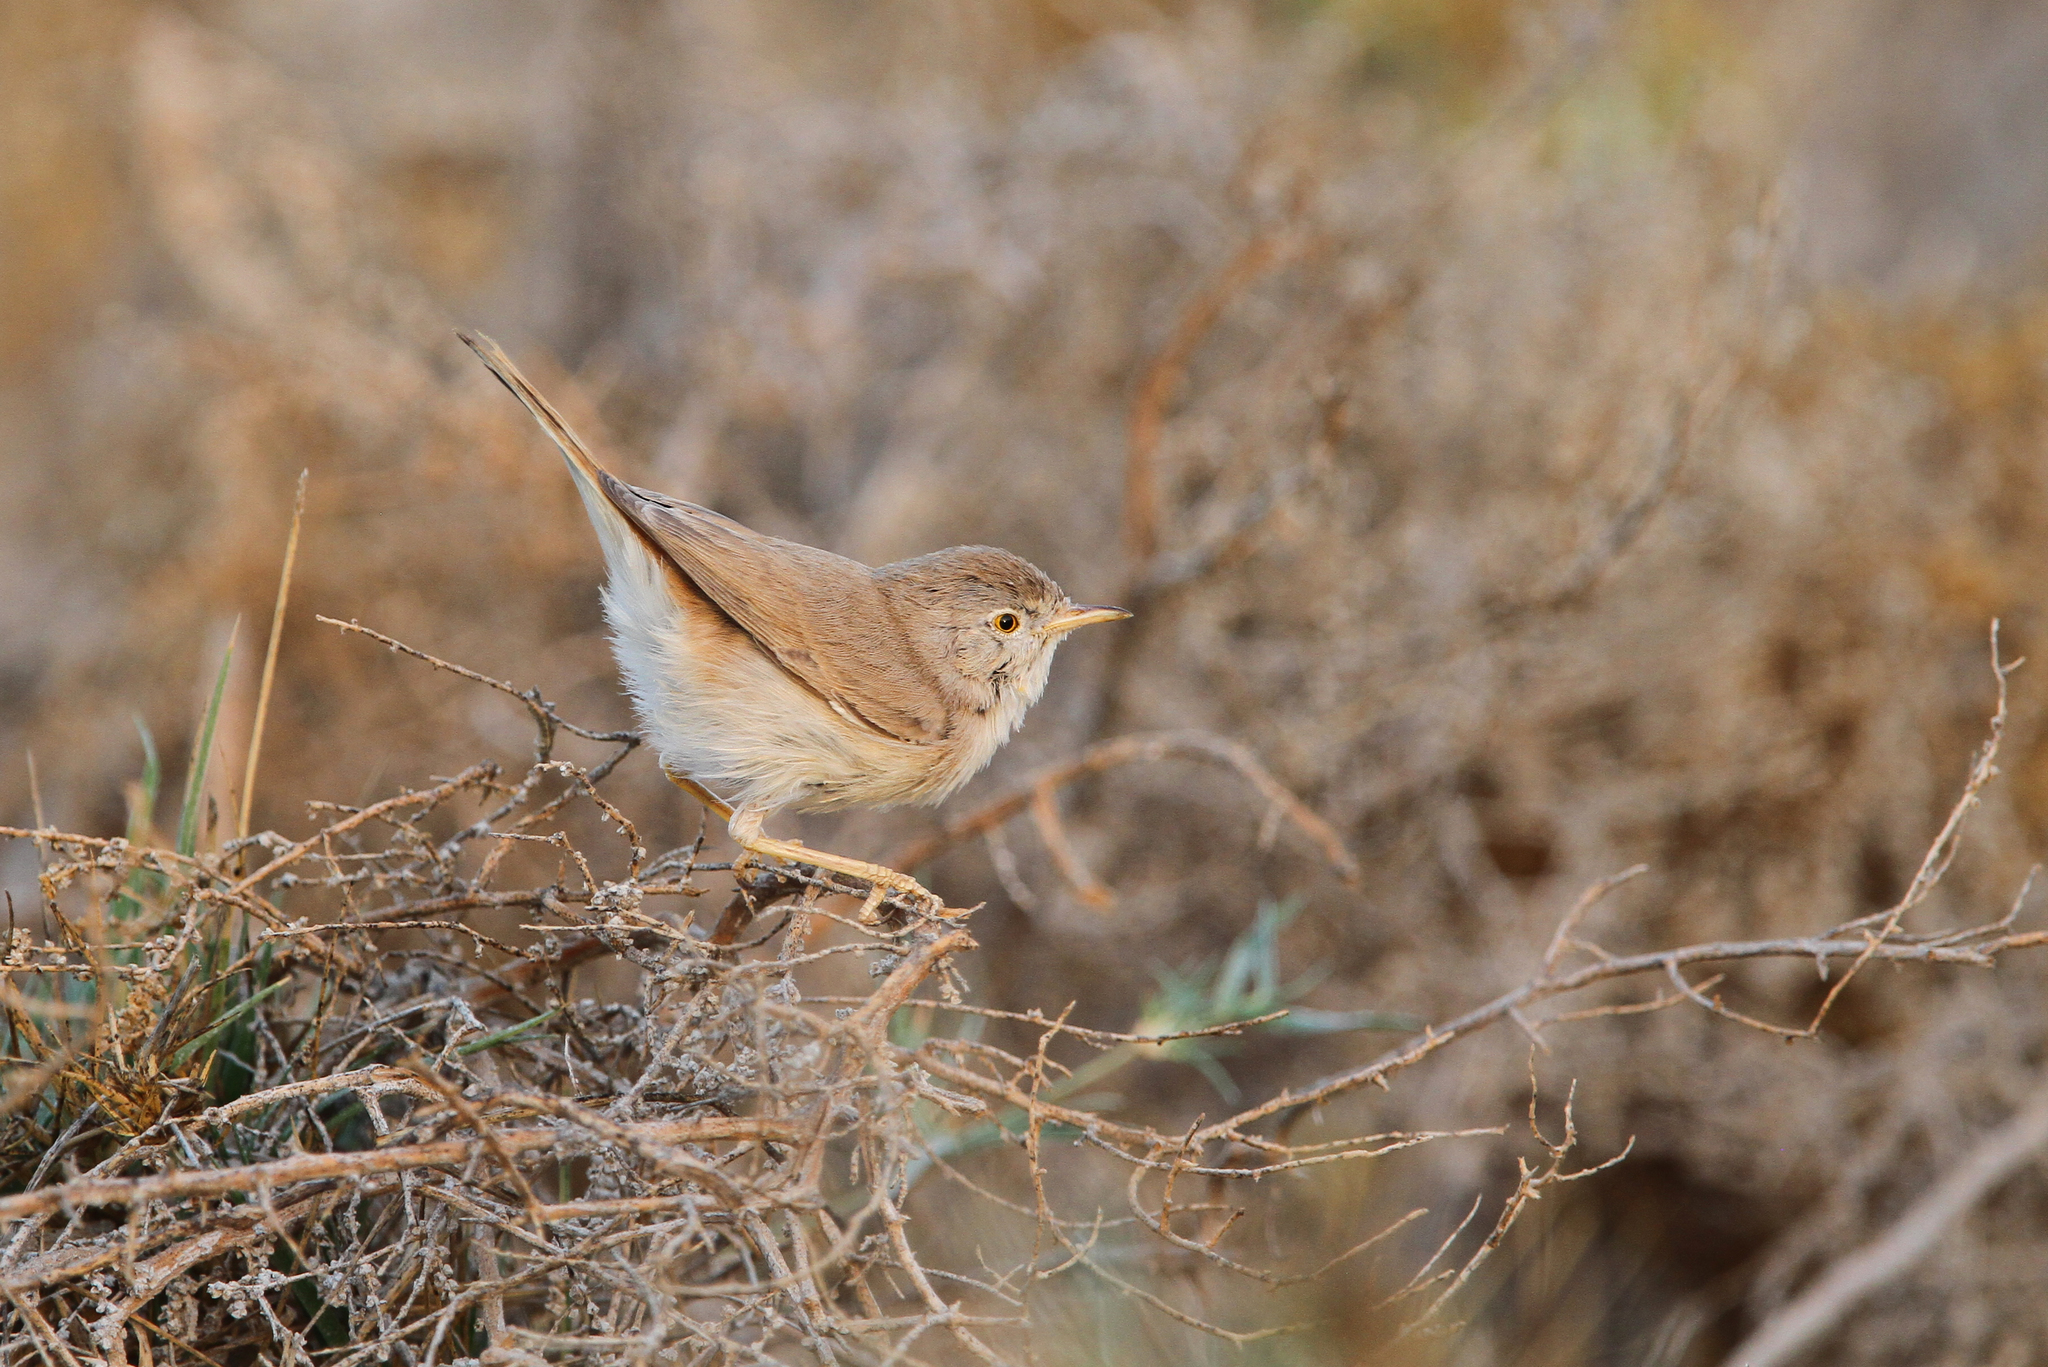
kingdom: Animalia
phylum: Chordata
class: Aves
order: Passeriformes
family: Sylviidae
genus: Sylvia
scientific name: Sylvia nana
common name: Asian desert warbler
